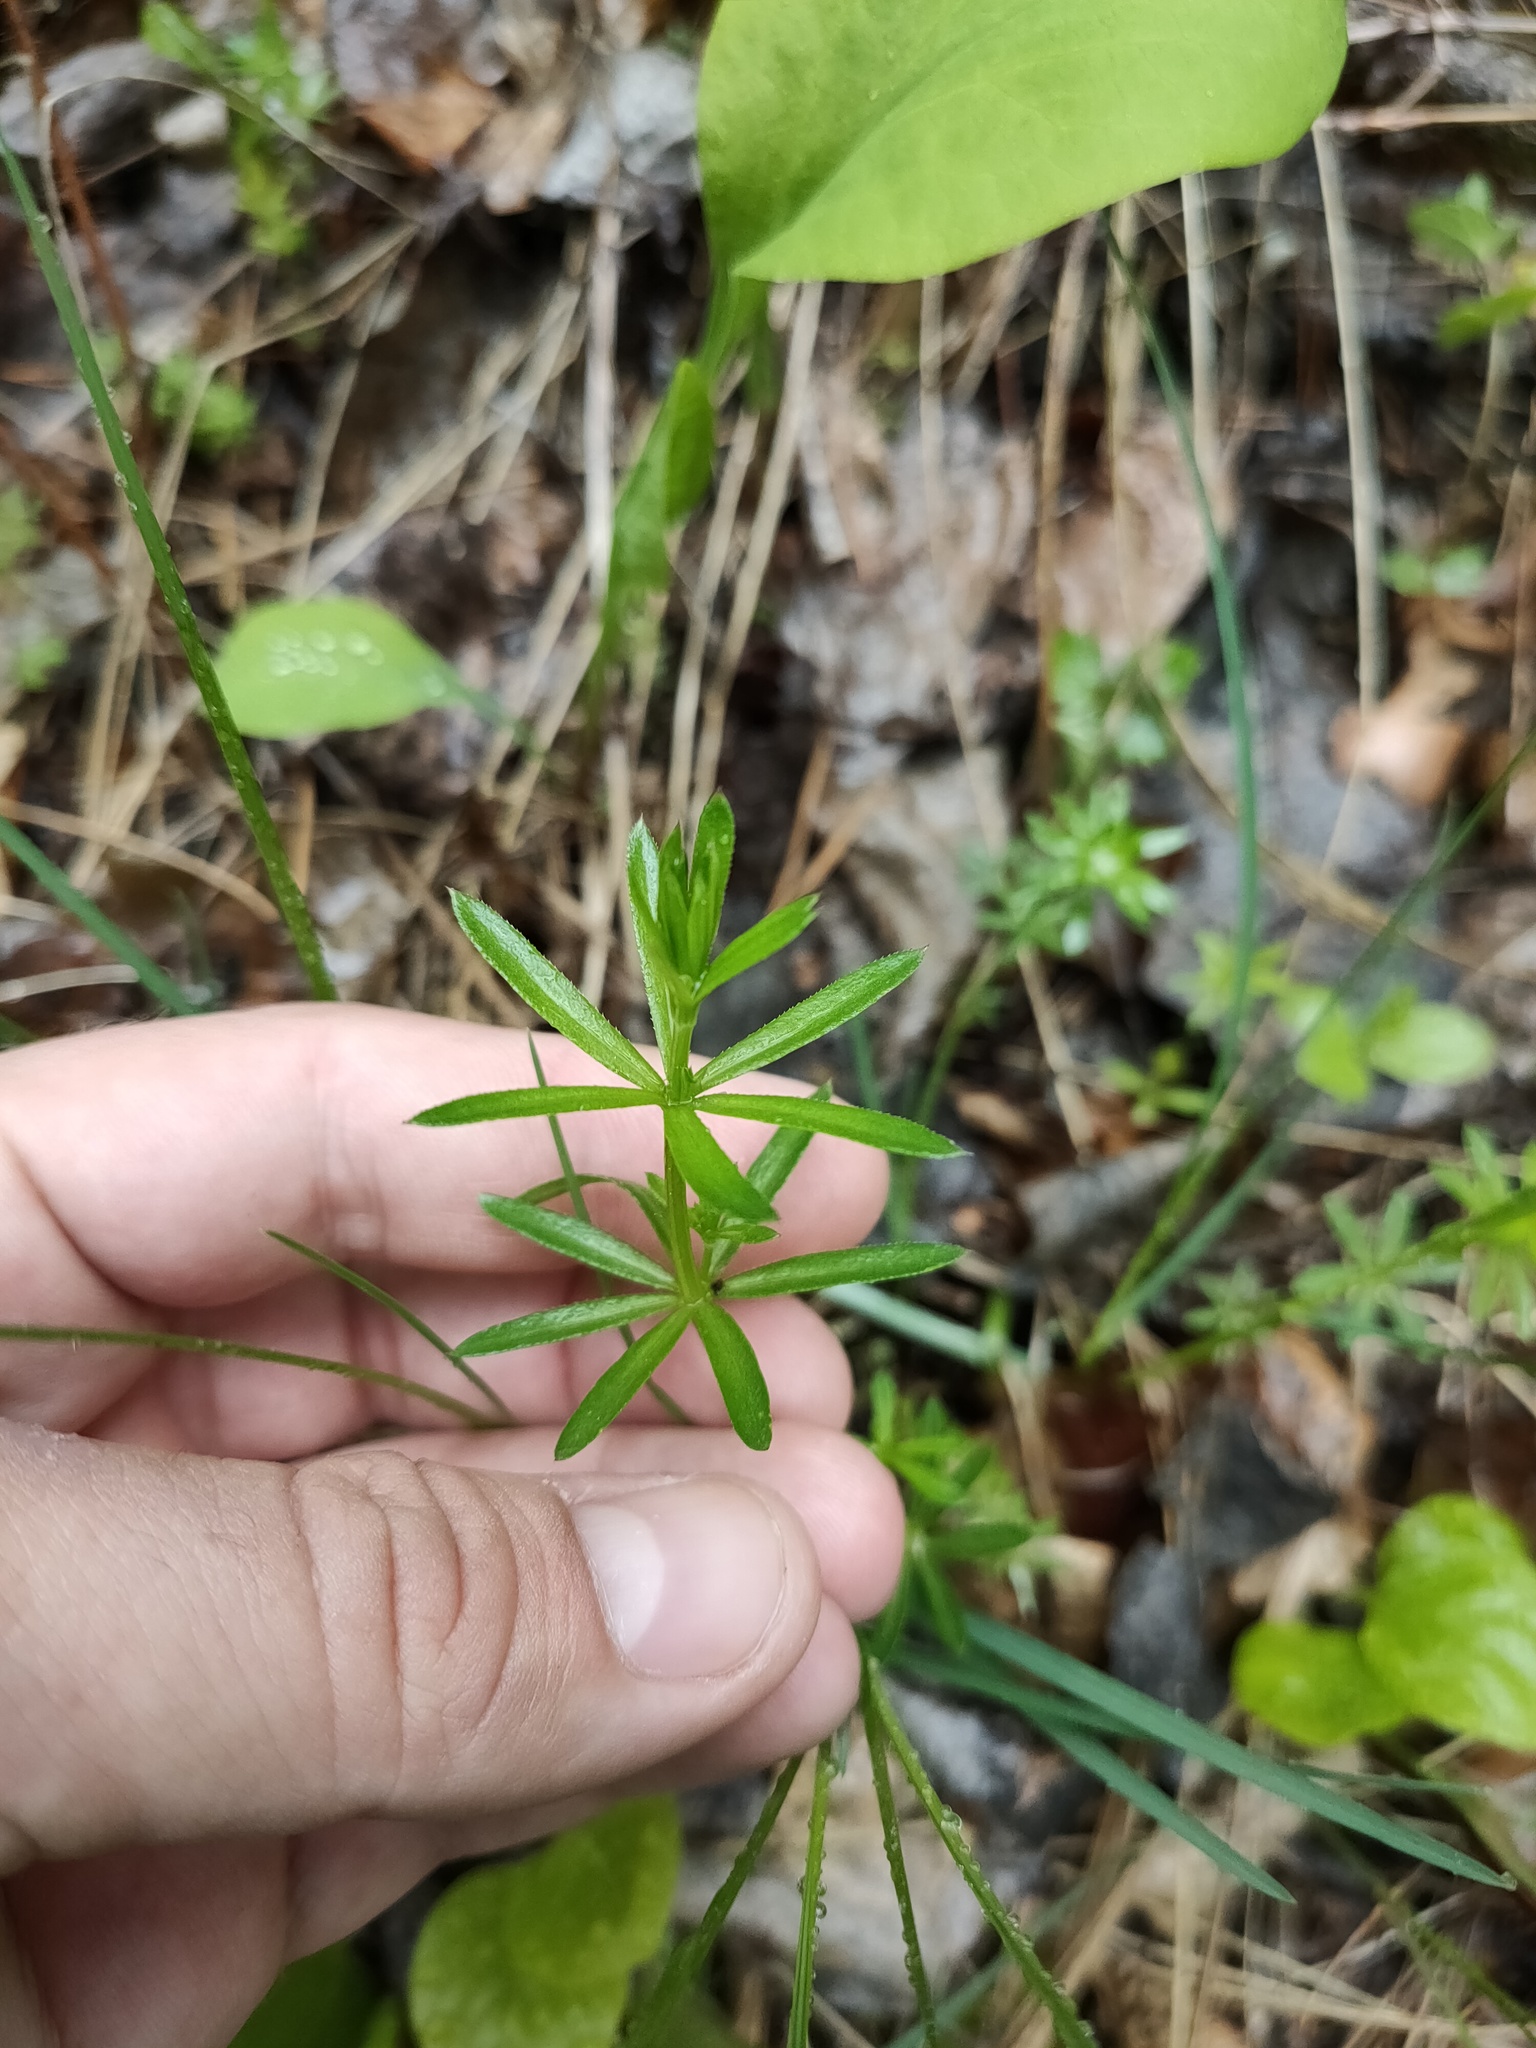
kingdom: Plantae
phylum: Tracheophyta
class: Magnoliopsida
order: Gentianales
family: Rubiaceae
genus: Galium
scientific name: Galium mollugo
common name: Hedge bedstraw
